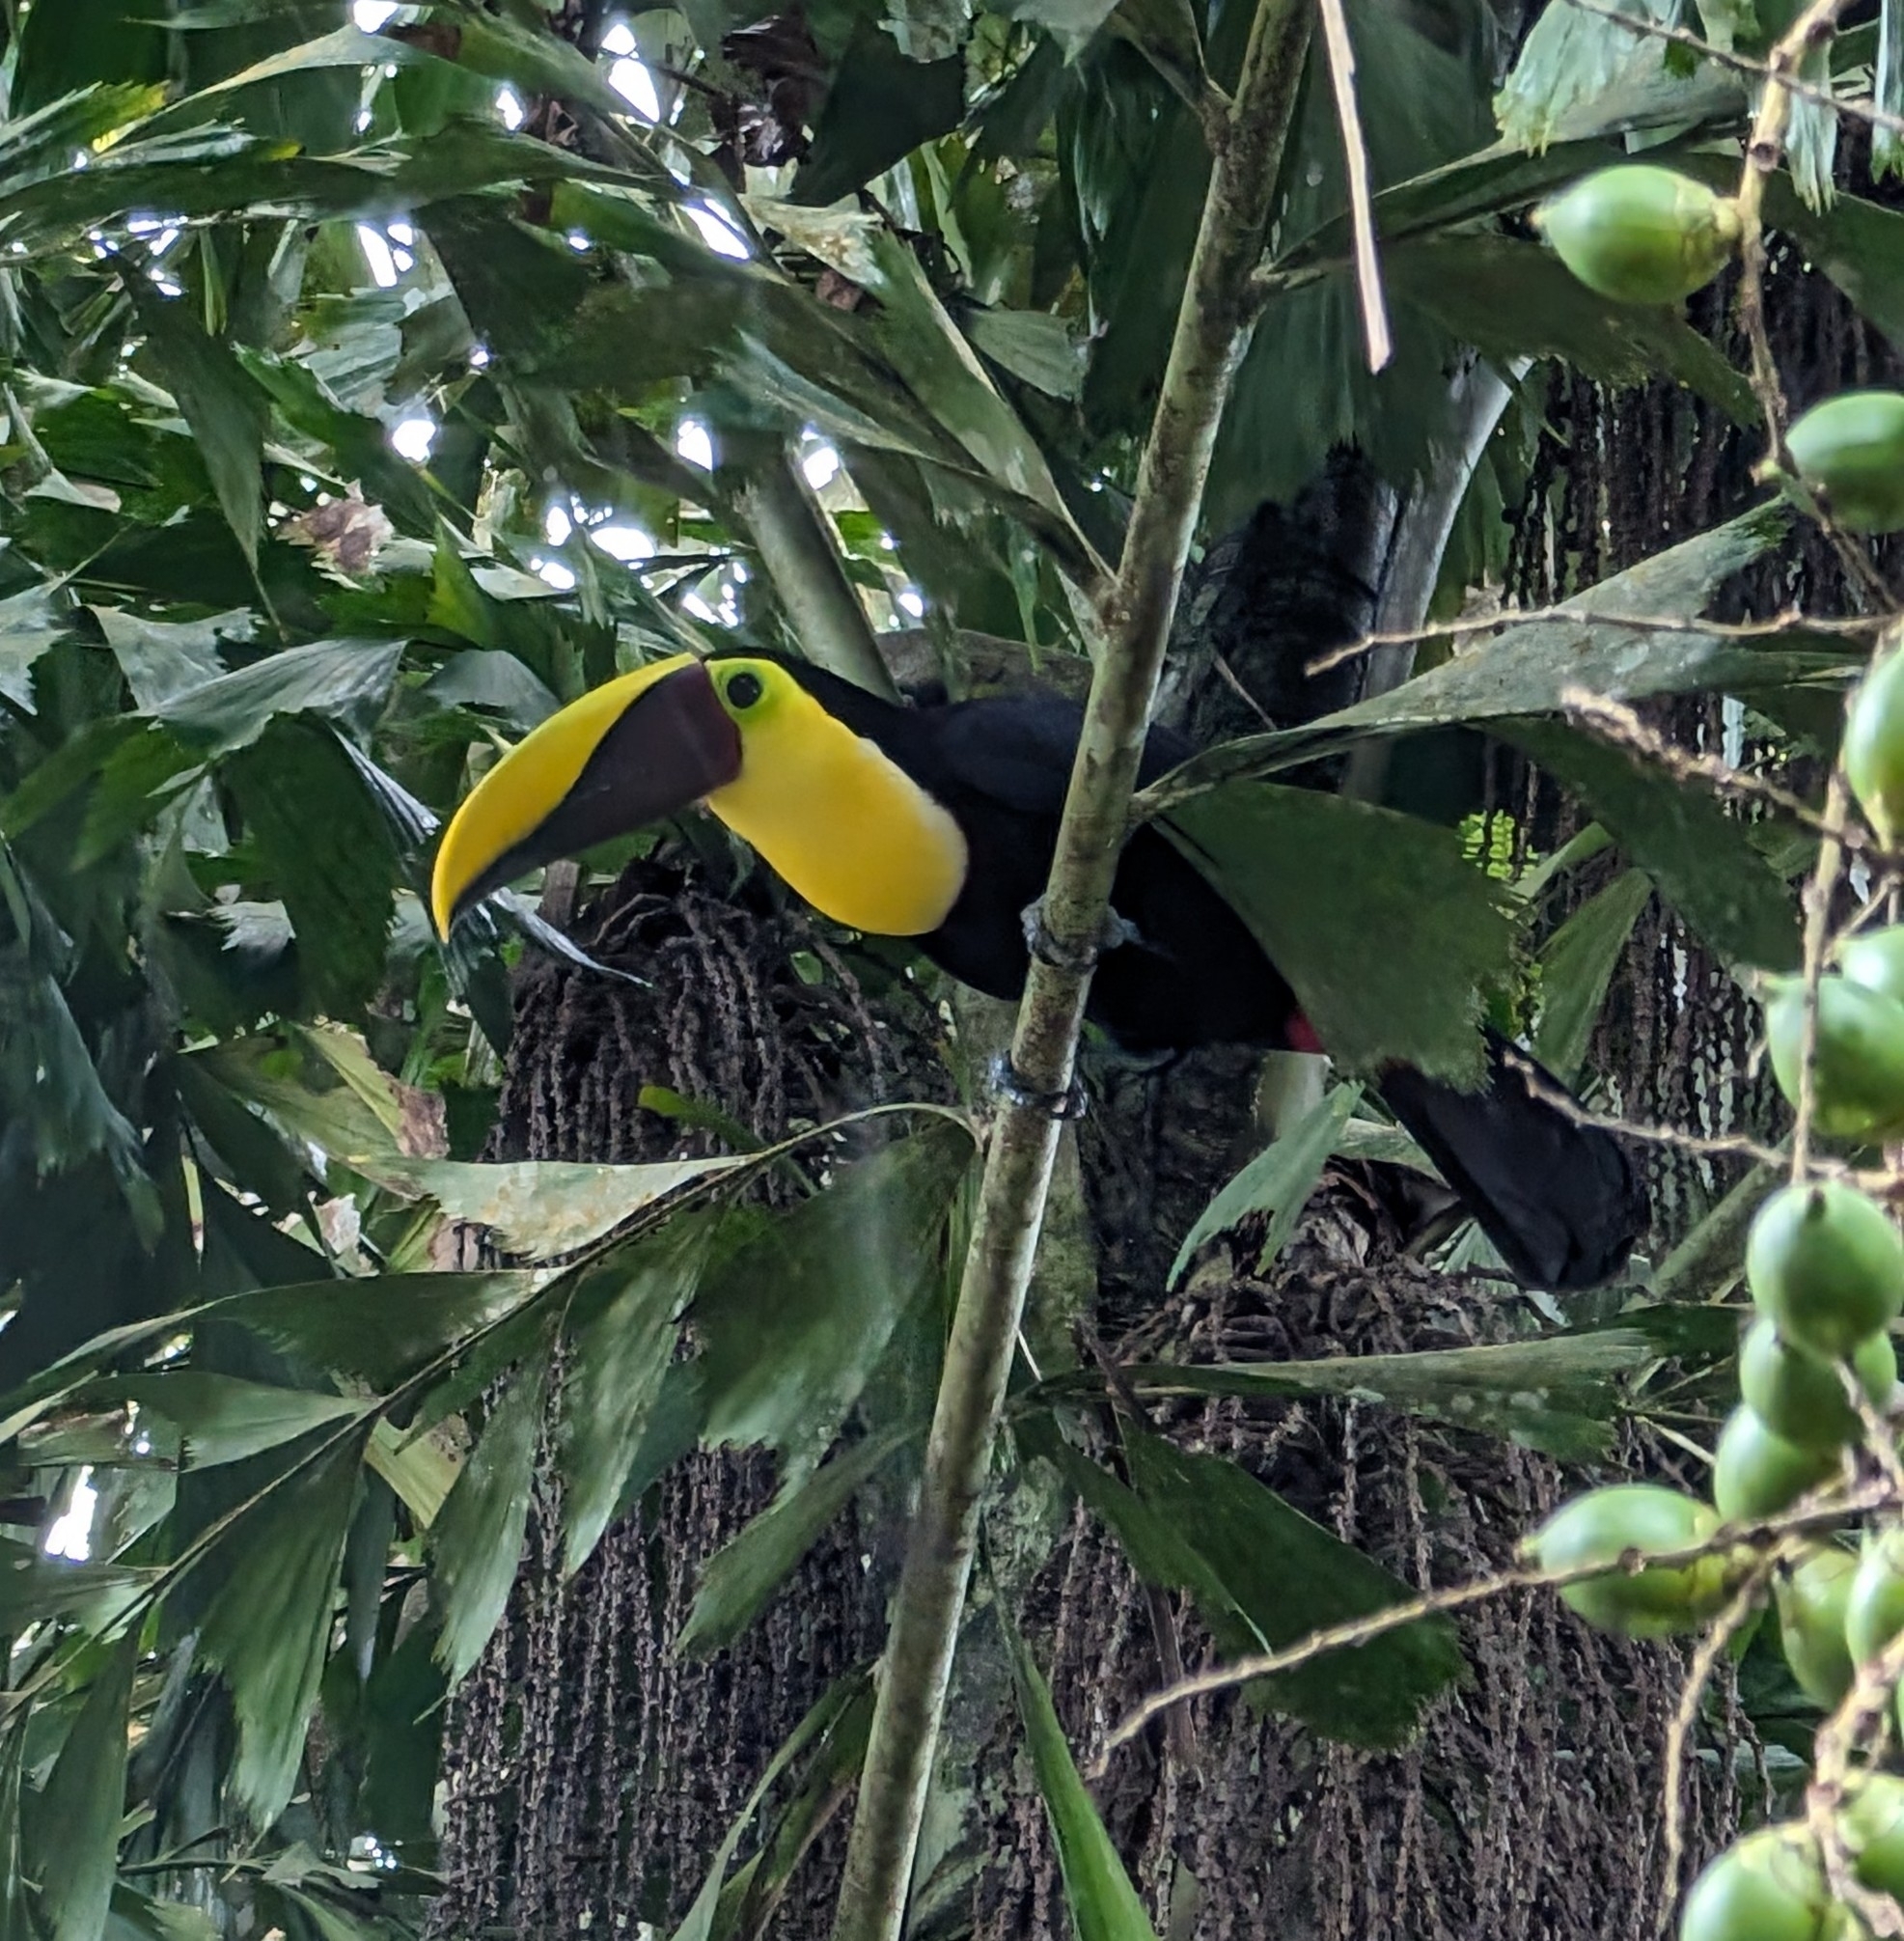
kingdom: Animalia
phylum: Chordata
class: Aves
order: Piciformes
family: Ramphastidae
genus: Ramphastos
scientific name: Ramphastos ambiguus
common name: Yellow-throated toucan
